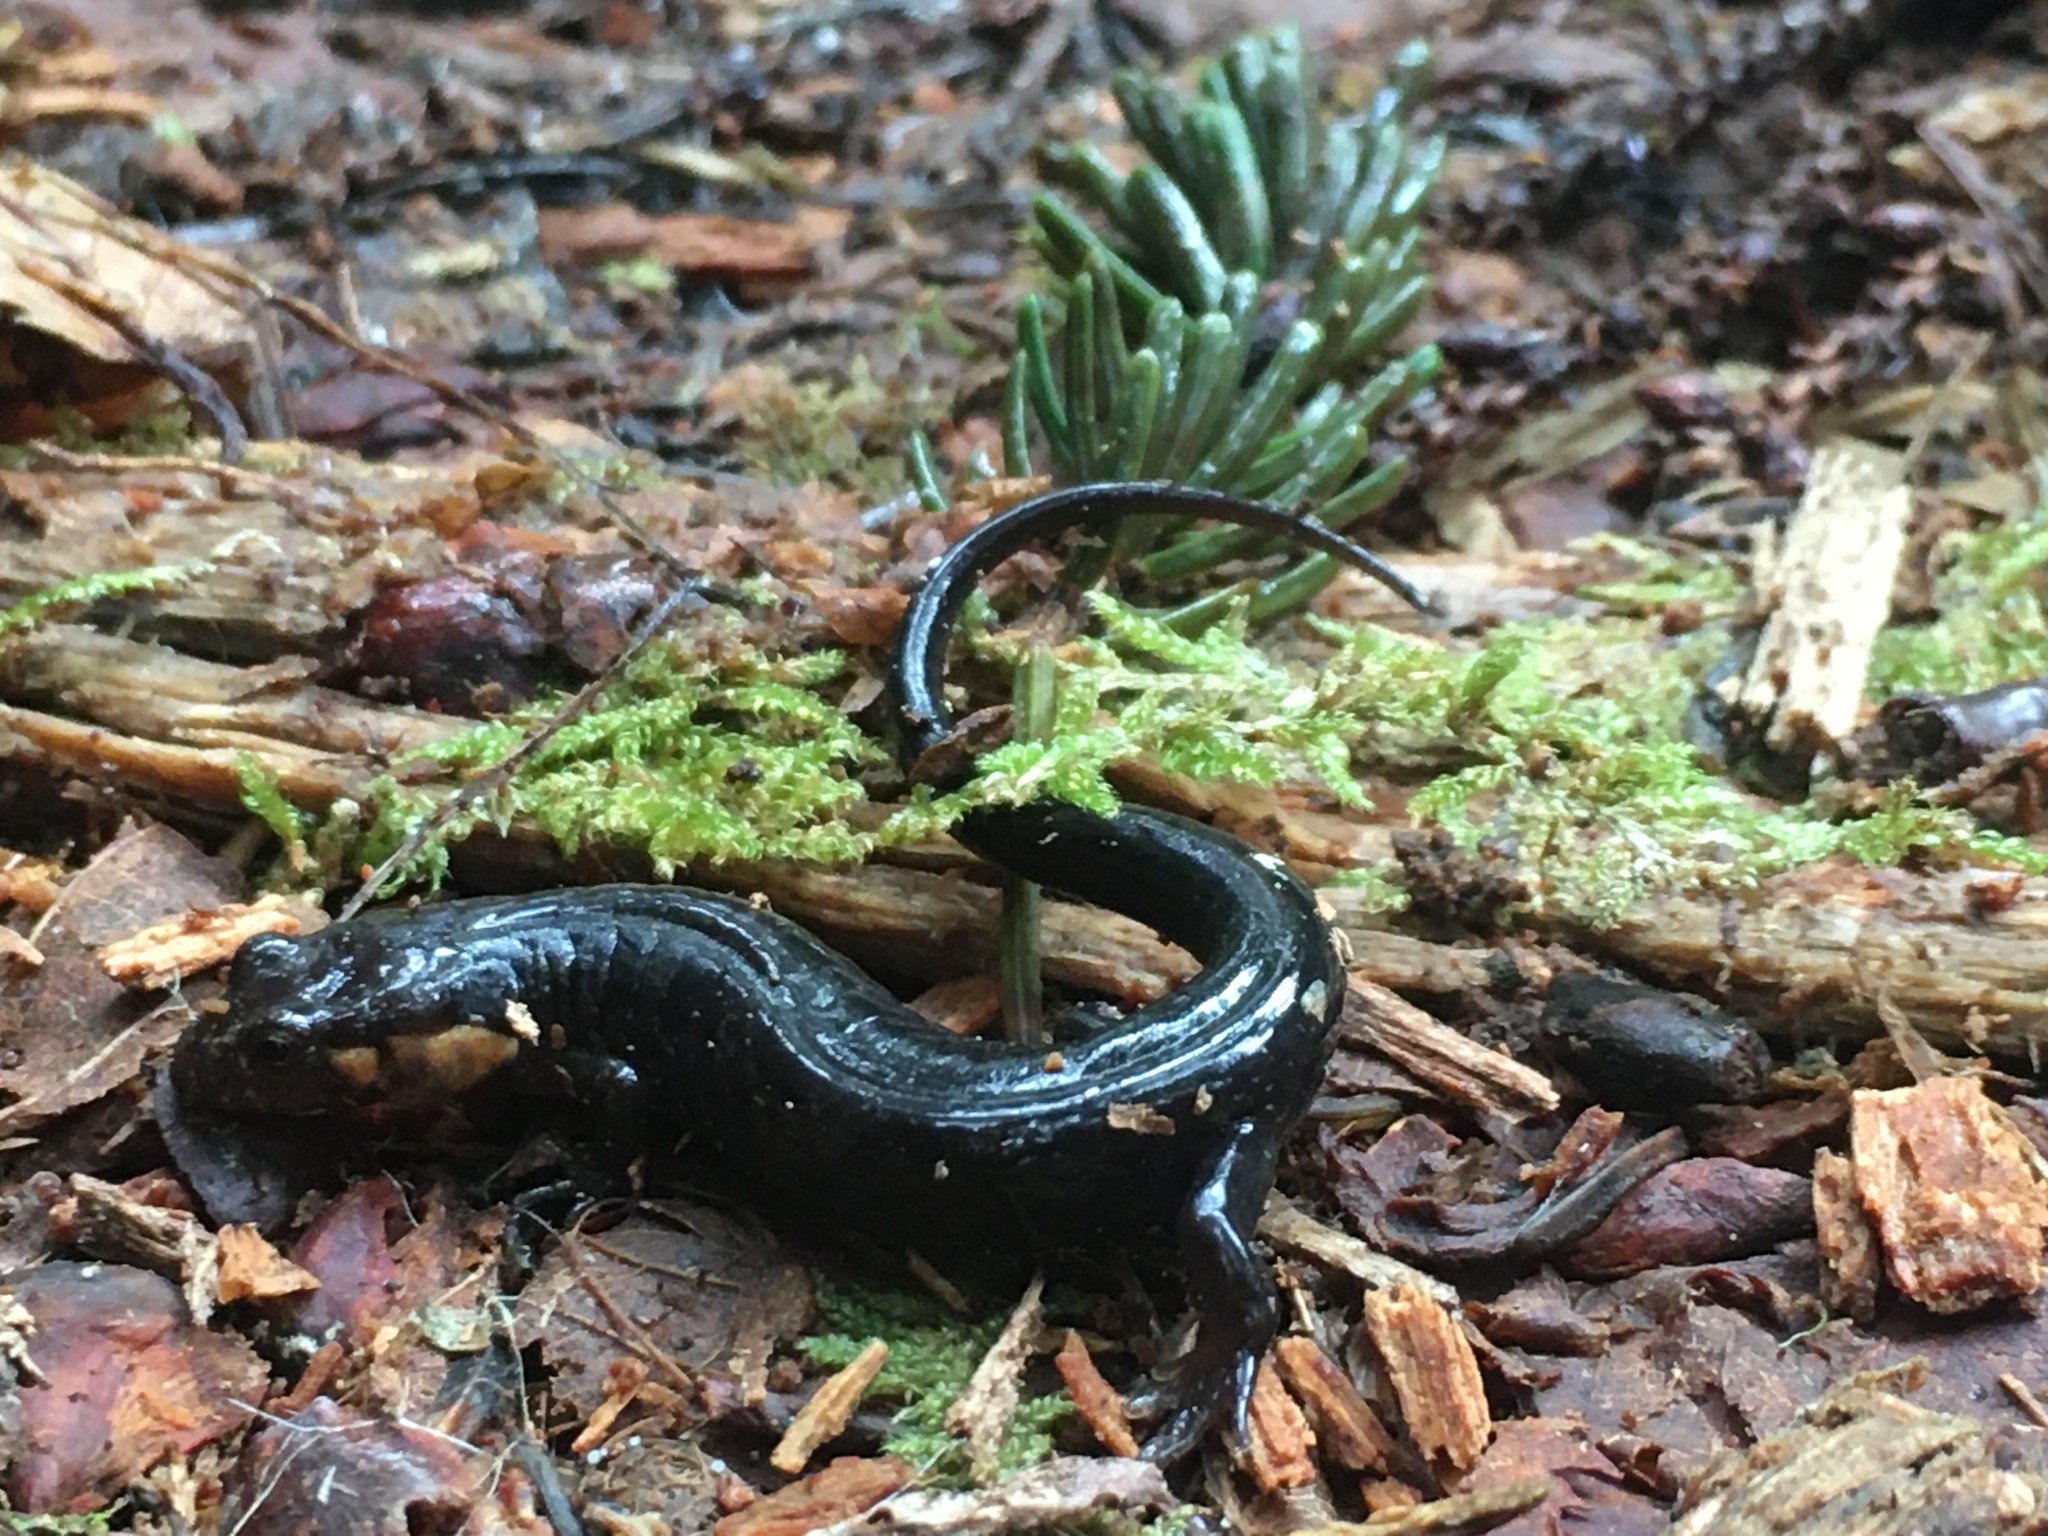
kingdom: Animalia
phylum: Chordata
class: Amphibia
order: Caudata
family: Plethodontidae
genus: Desmognathus
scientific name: Desmognathus imitator
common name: Imitator salamander
